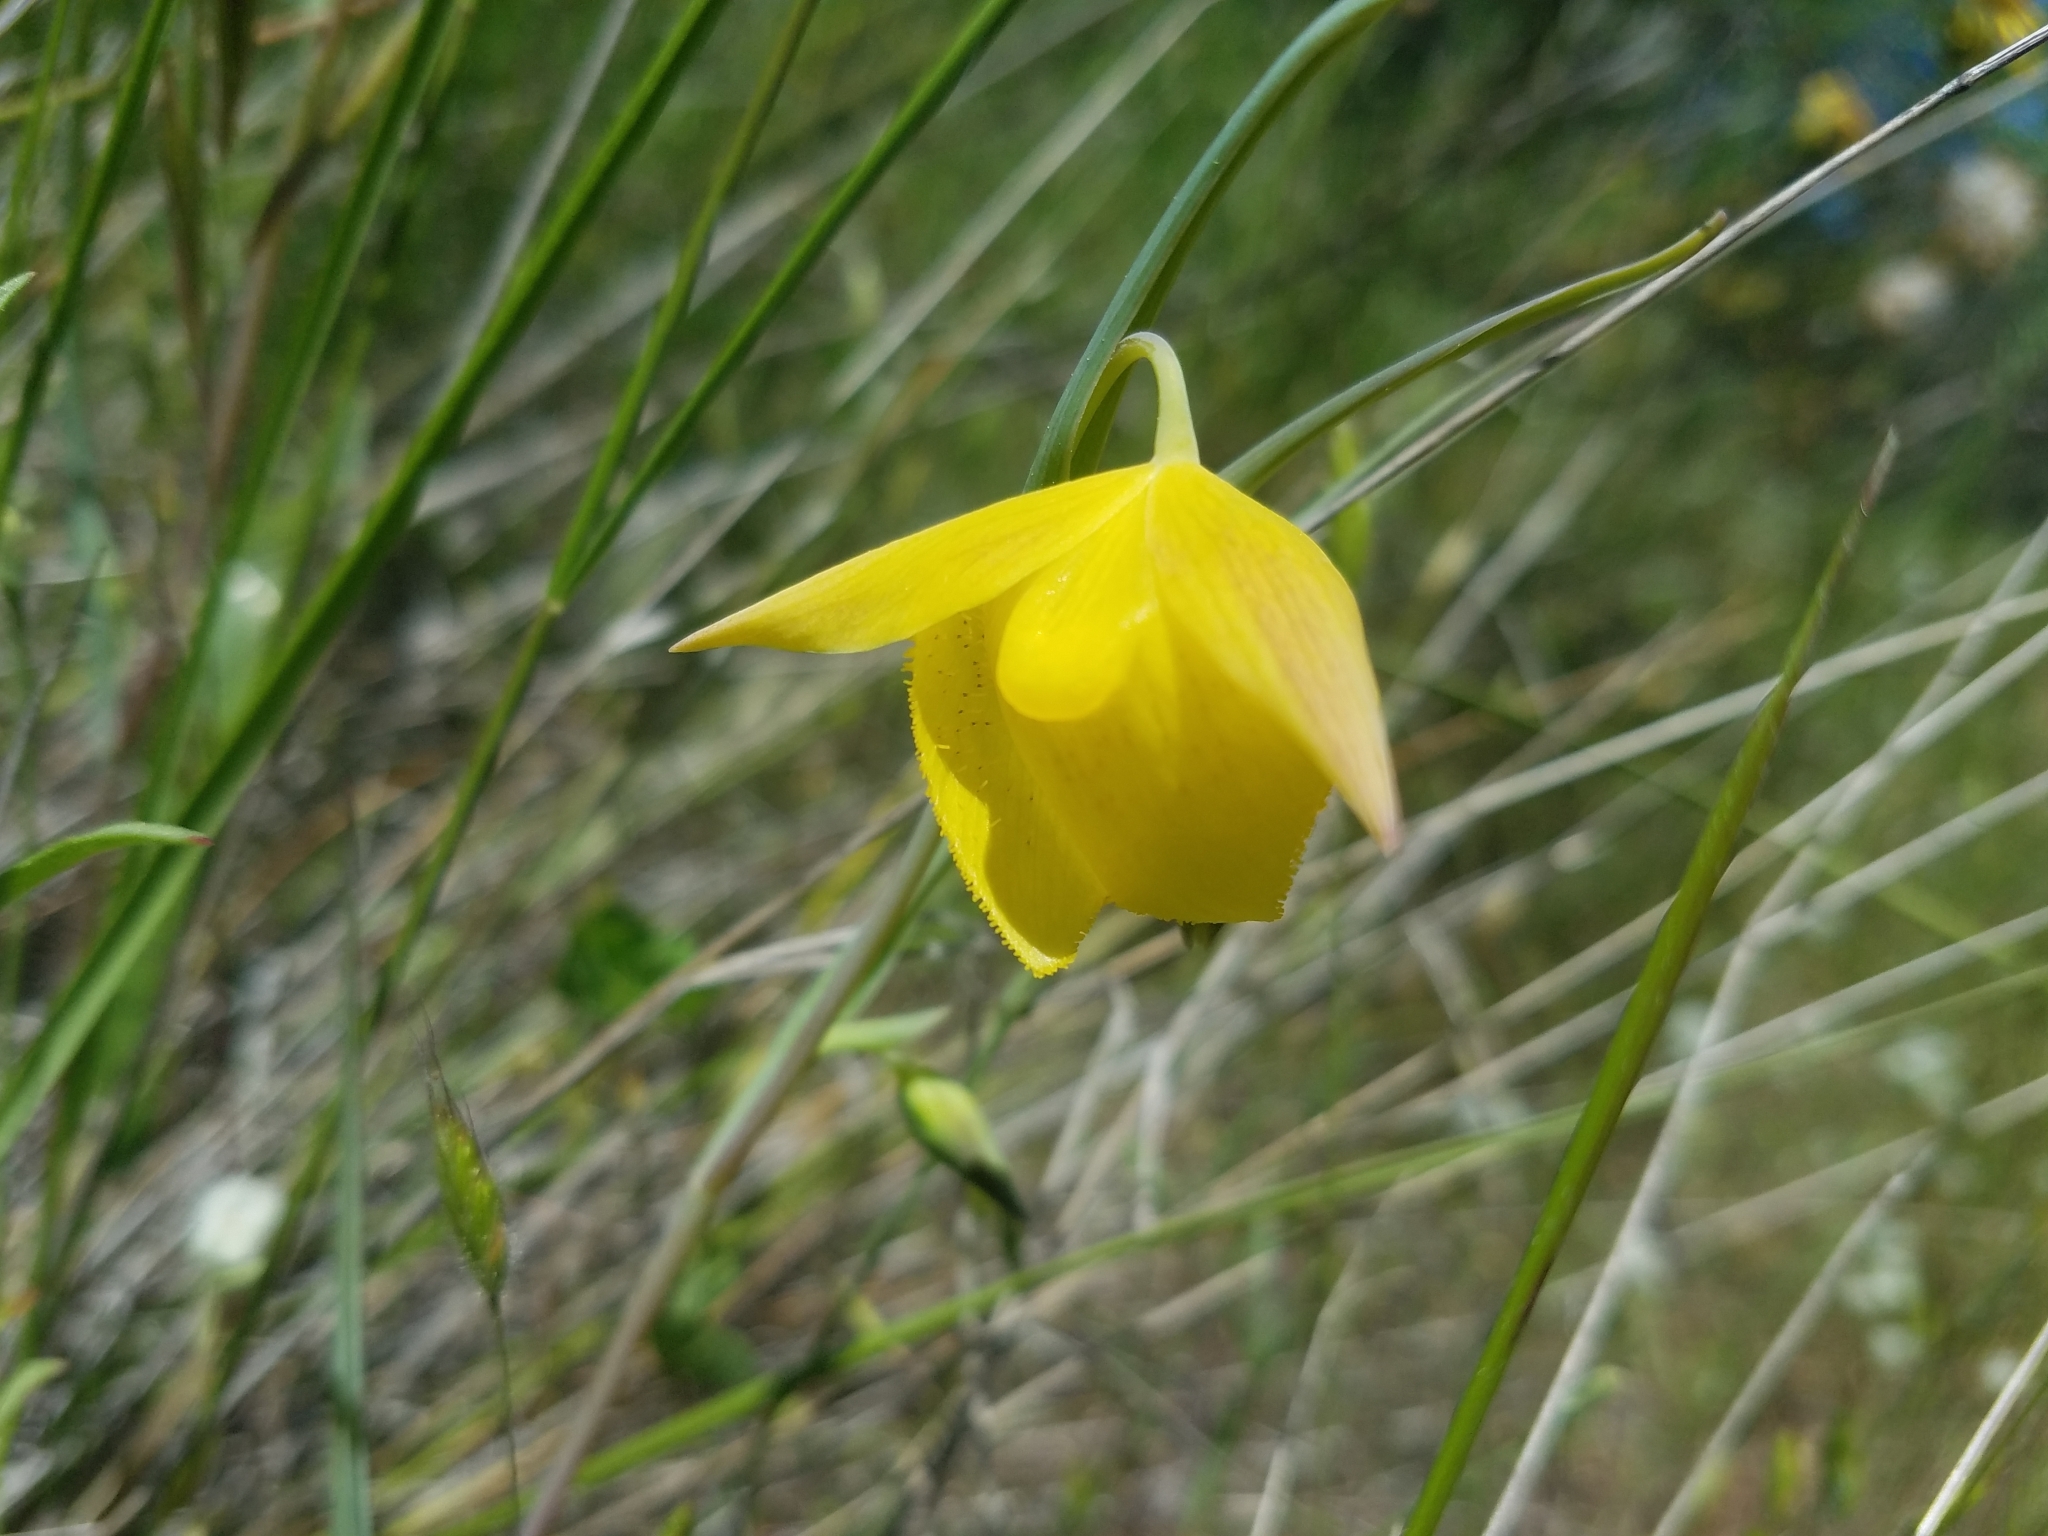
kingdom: Plantae
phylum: Tracheophyta
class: Liliopsida
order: Liliales
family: Liliaceae
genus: Calochortus
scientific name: Calochortus pulchellus
